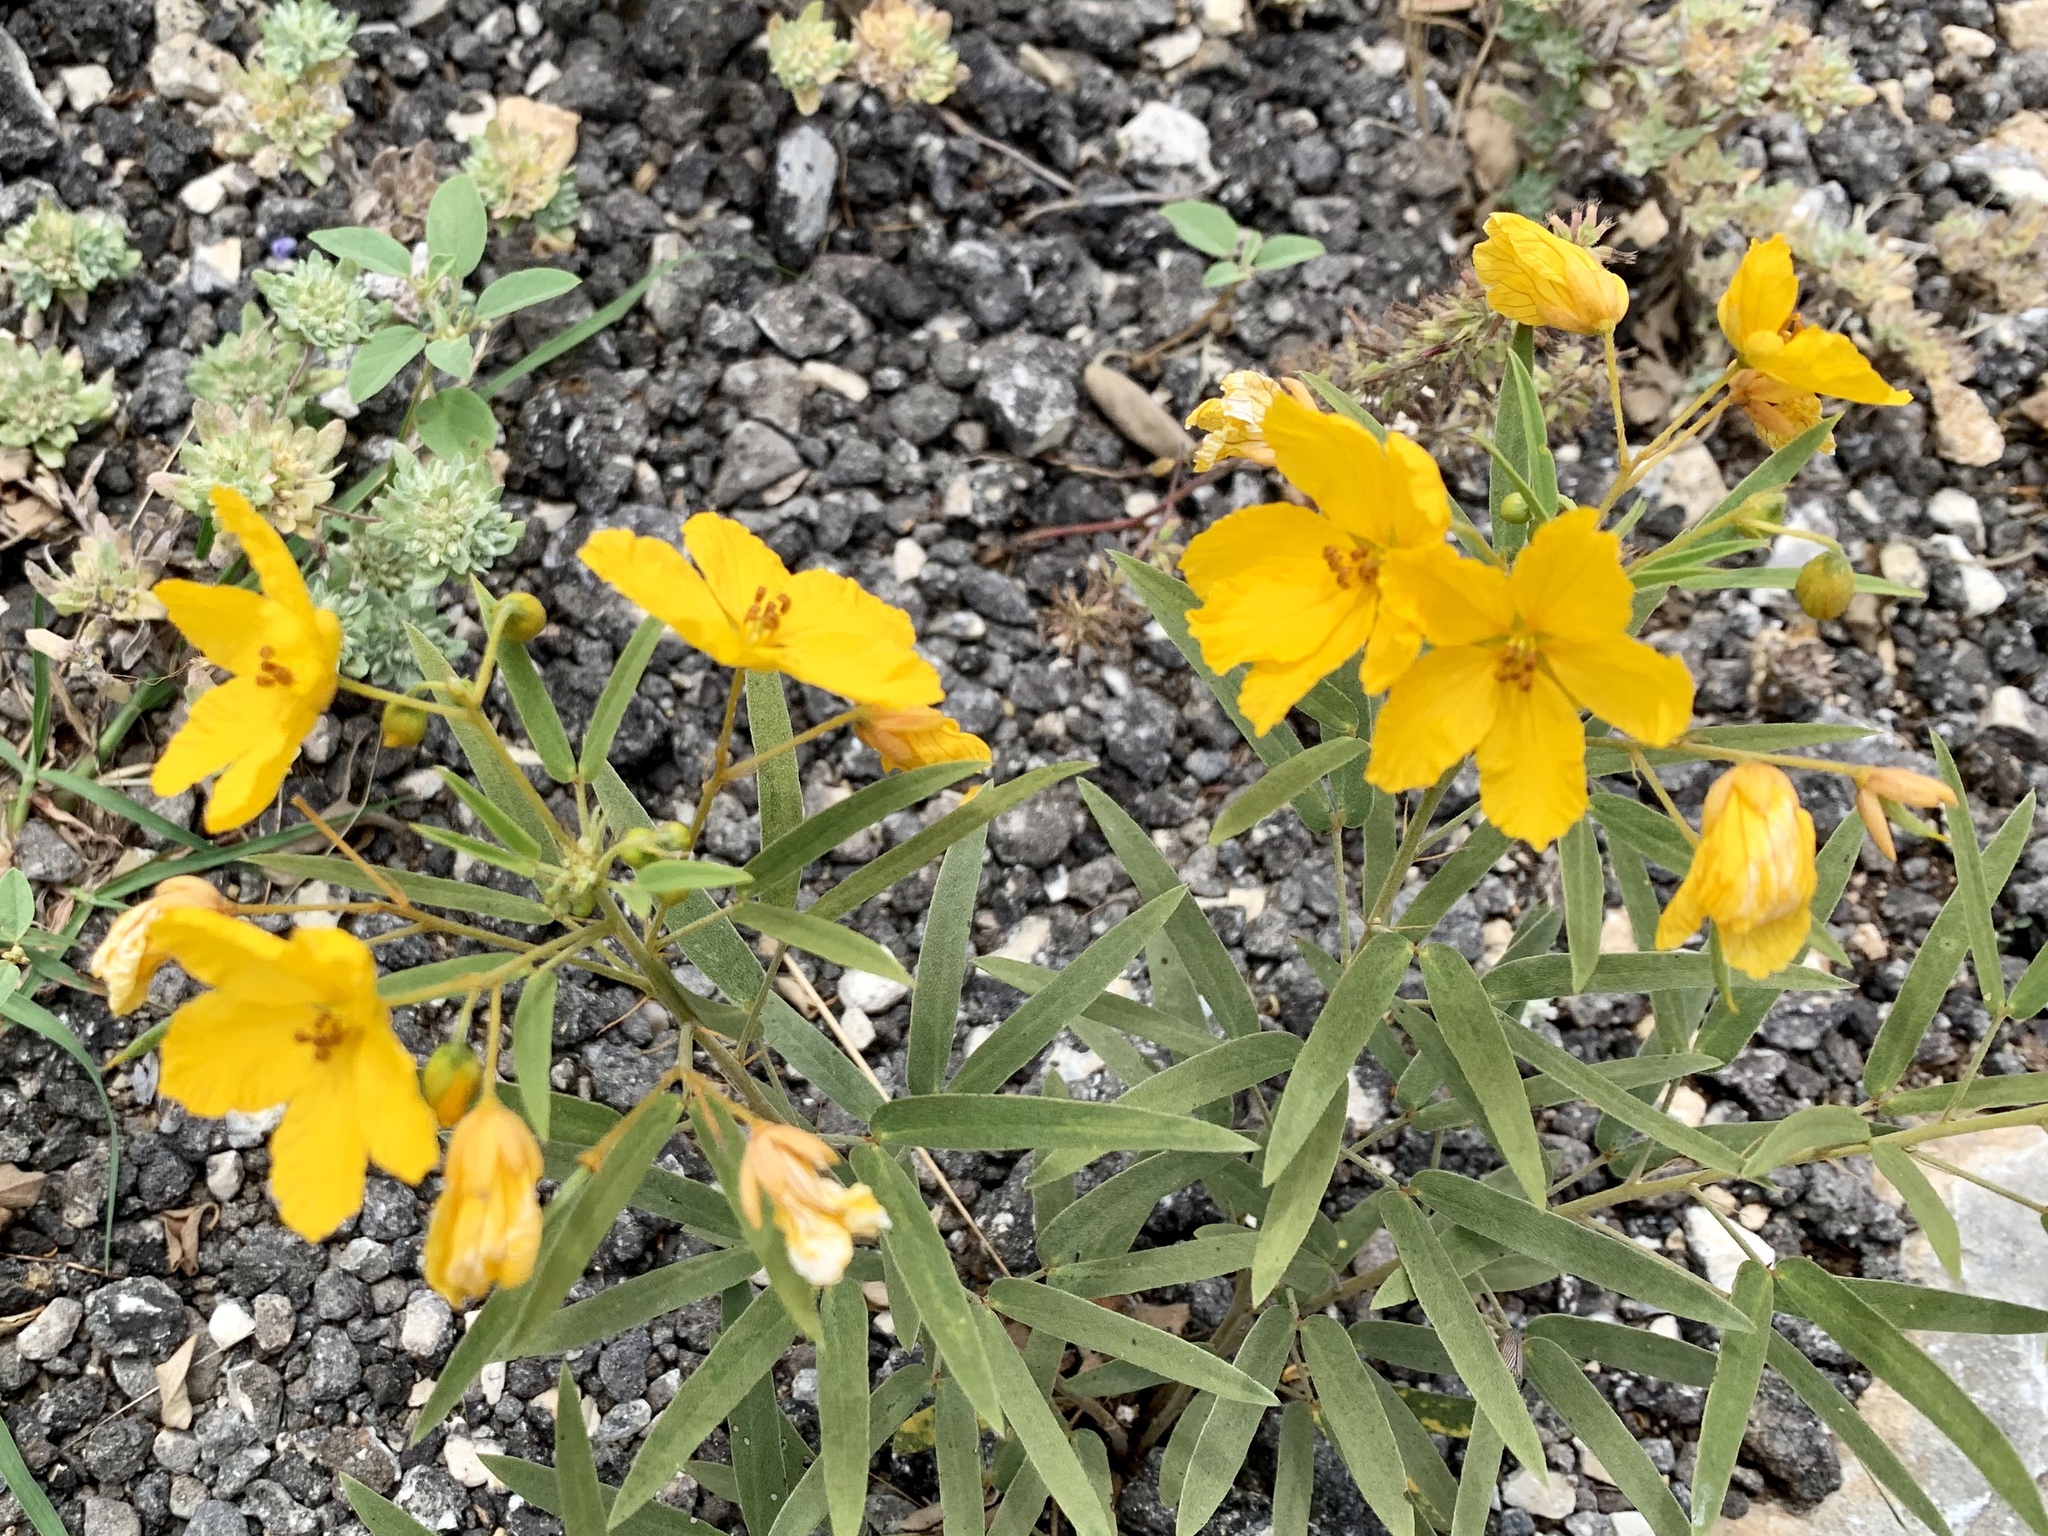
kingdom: Plantae
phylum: Tracheophyta
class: Magnoliopsida
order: Fabales
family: Fabaceae
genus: Senna
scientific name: Senna roemeriana
